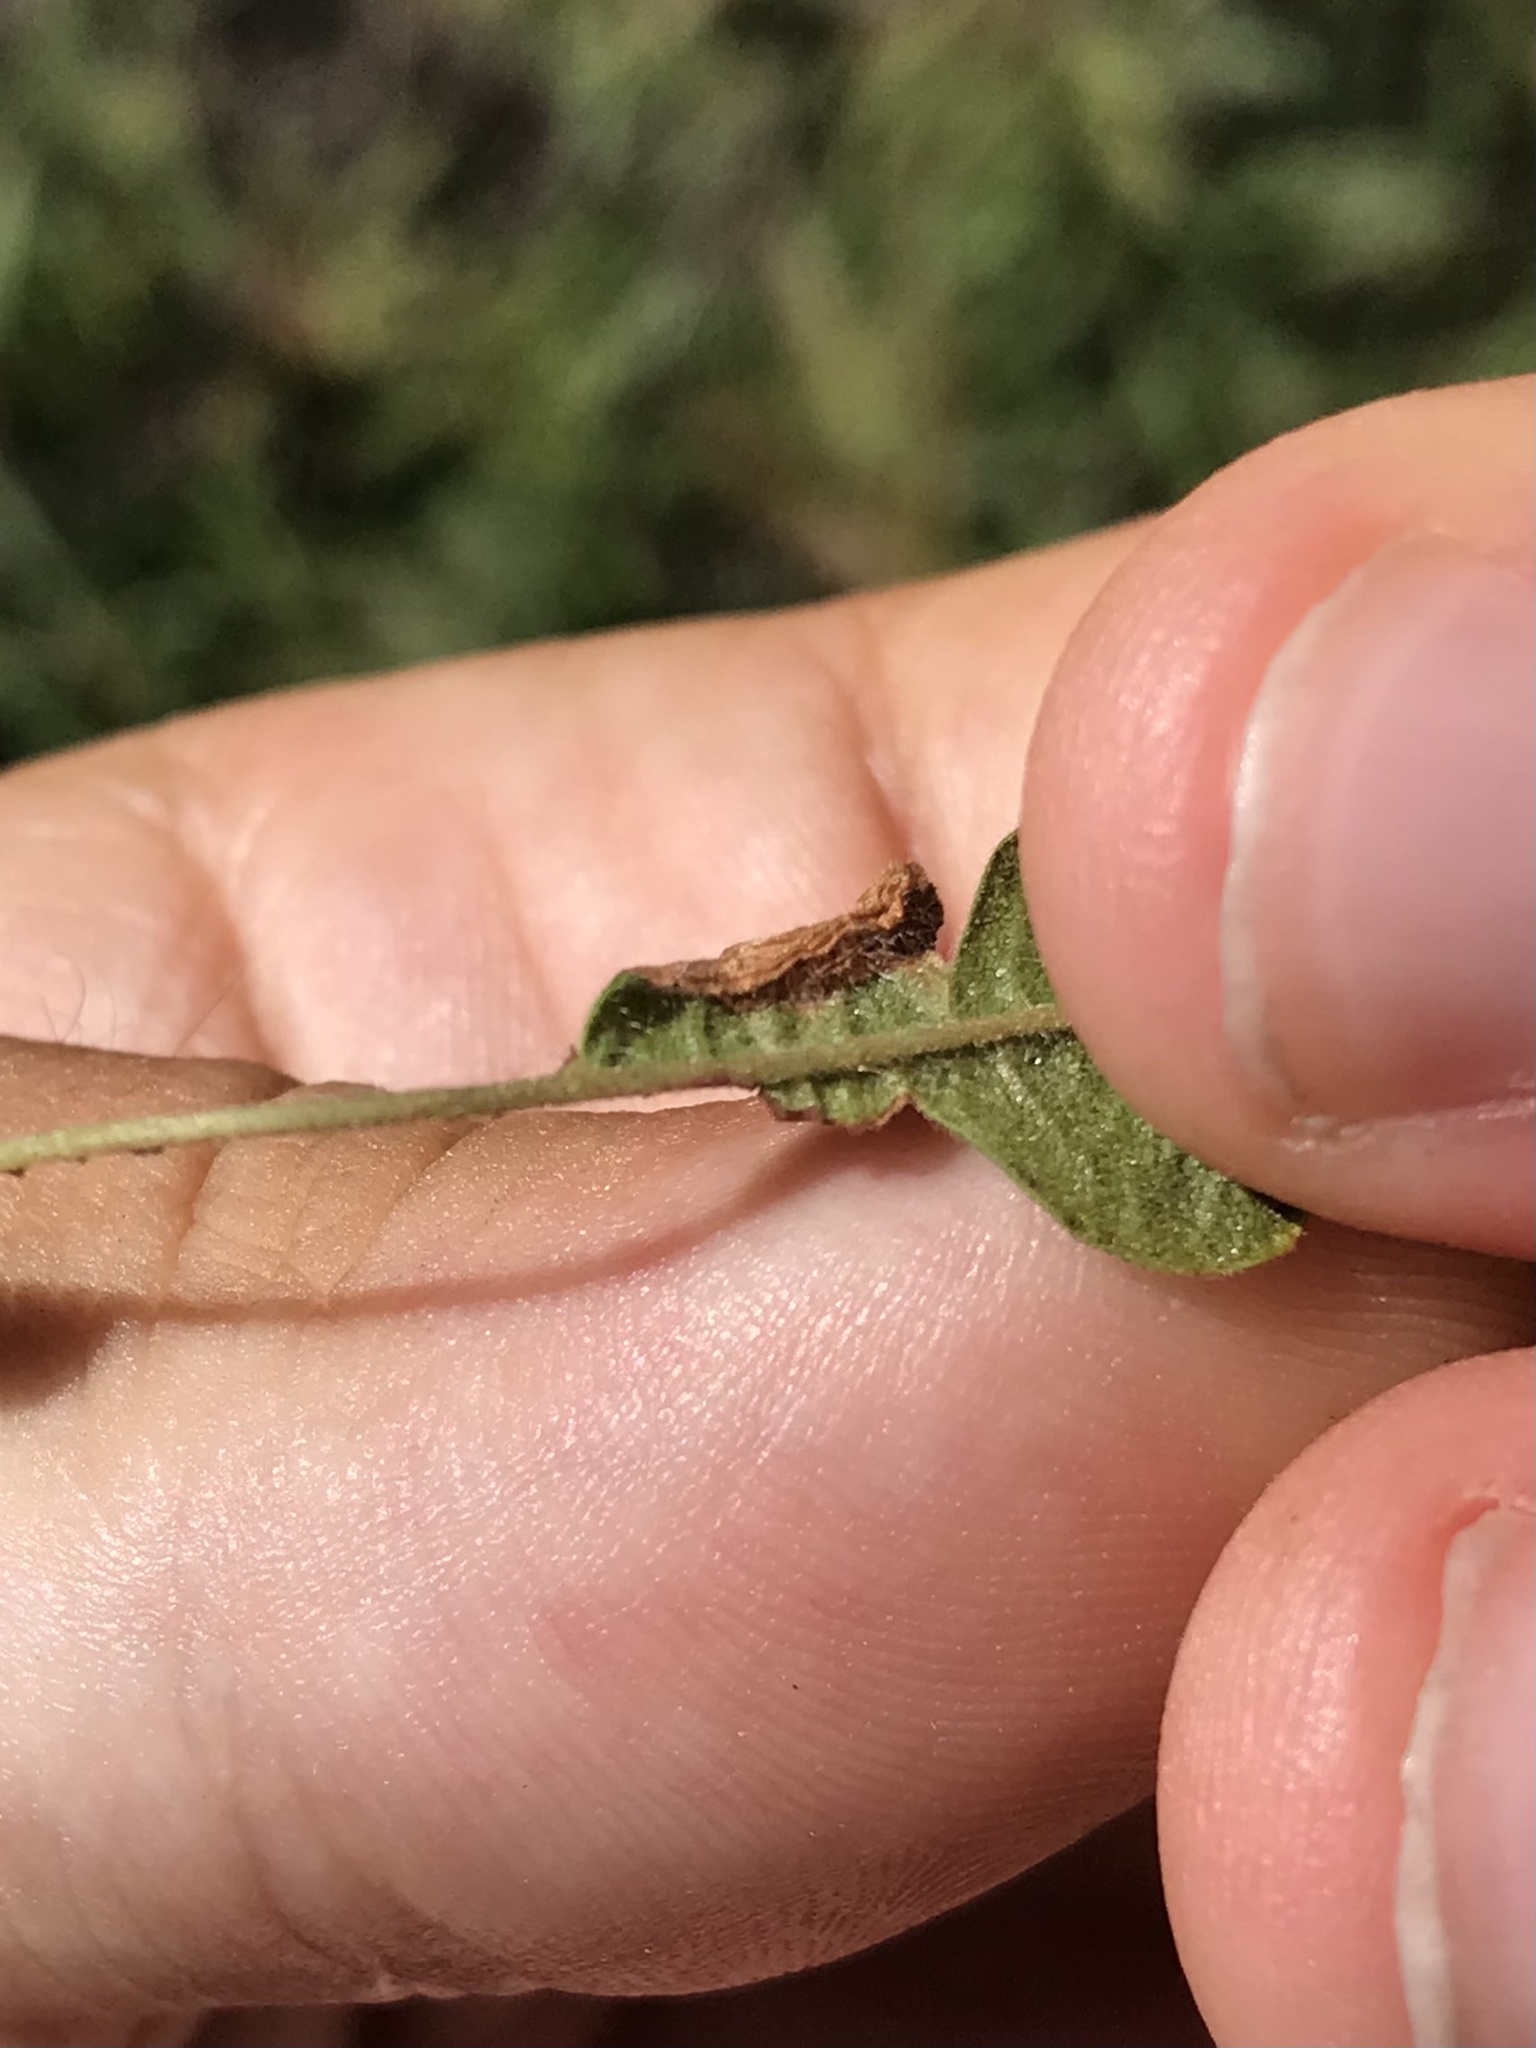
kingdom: Animalia
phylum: Arthropoda
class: Insecta
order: Lepidoptera
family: Gracillariidae
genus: Phyllonorycter
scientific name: Phyllonorycter comptoniella
